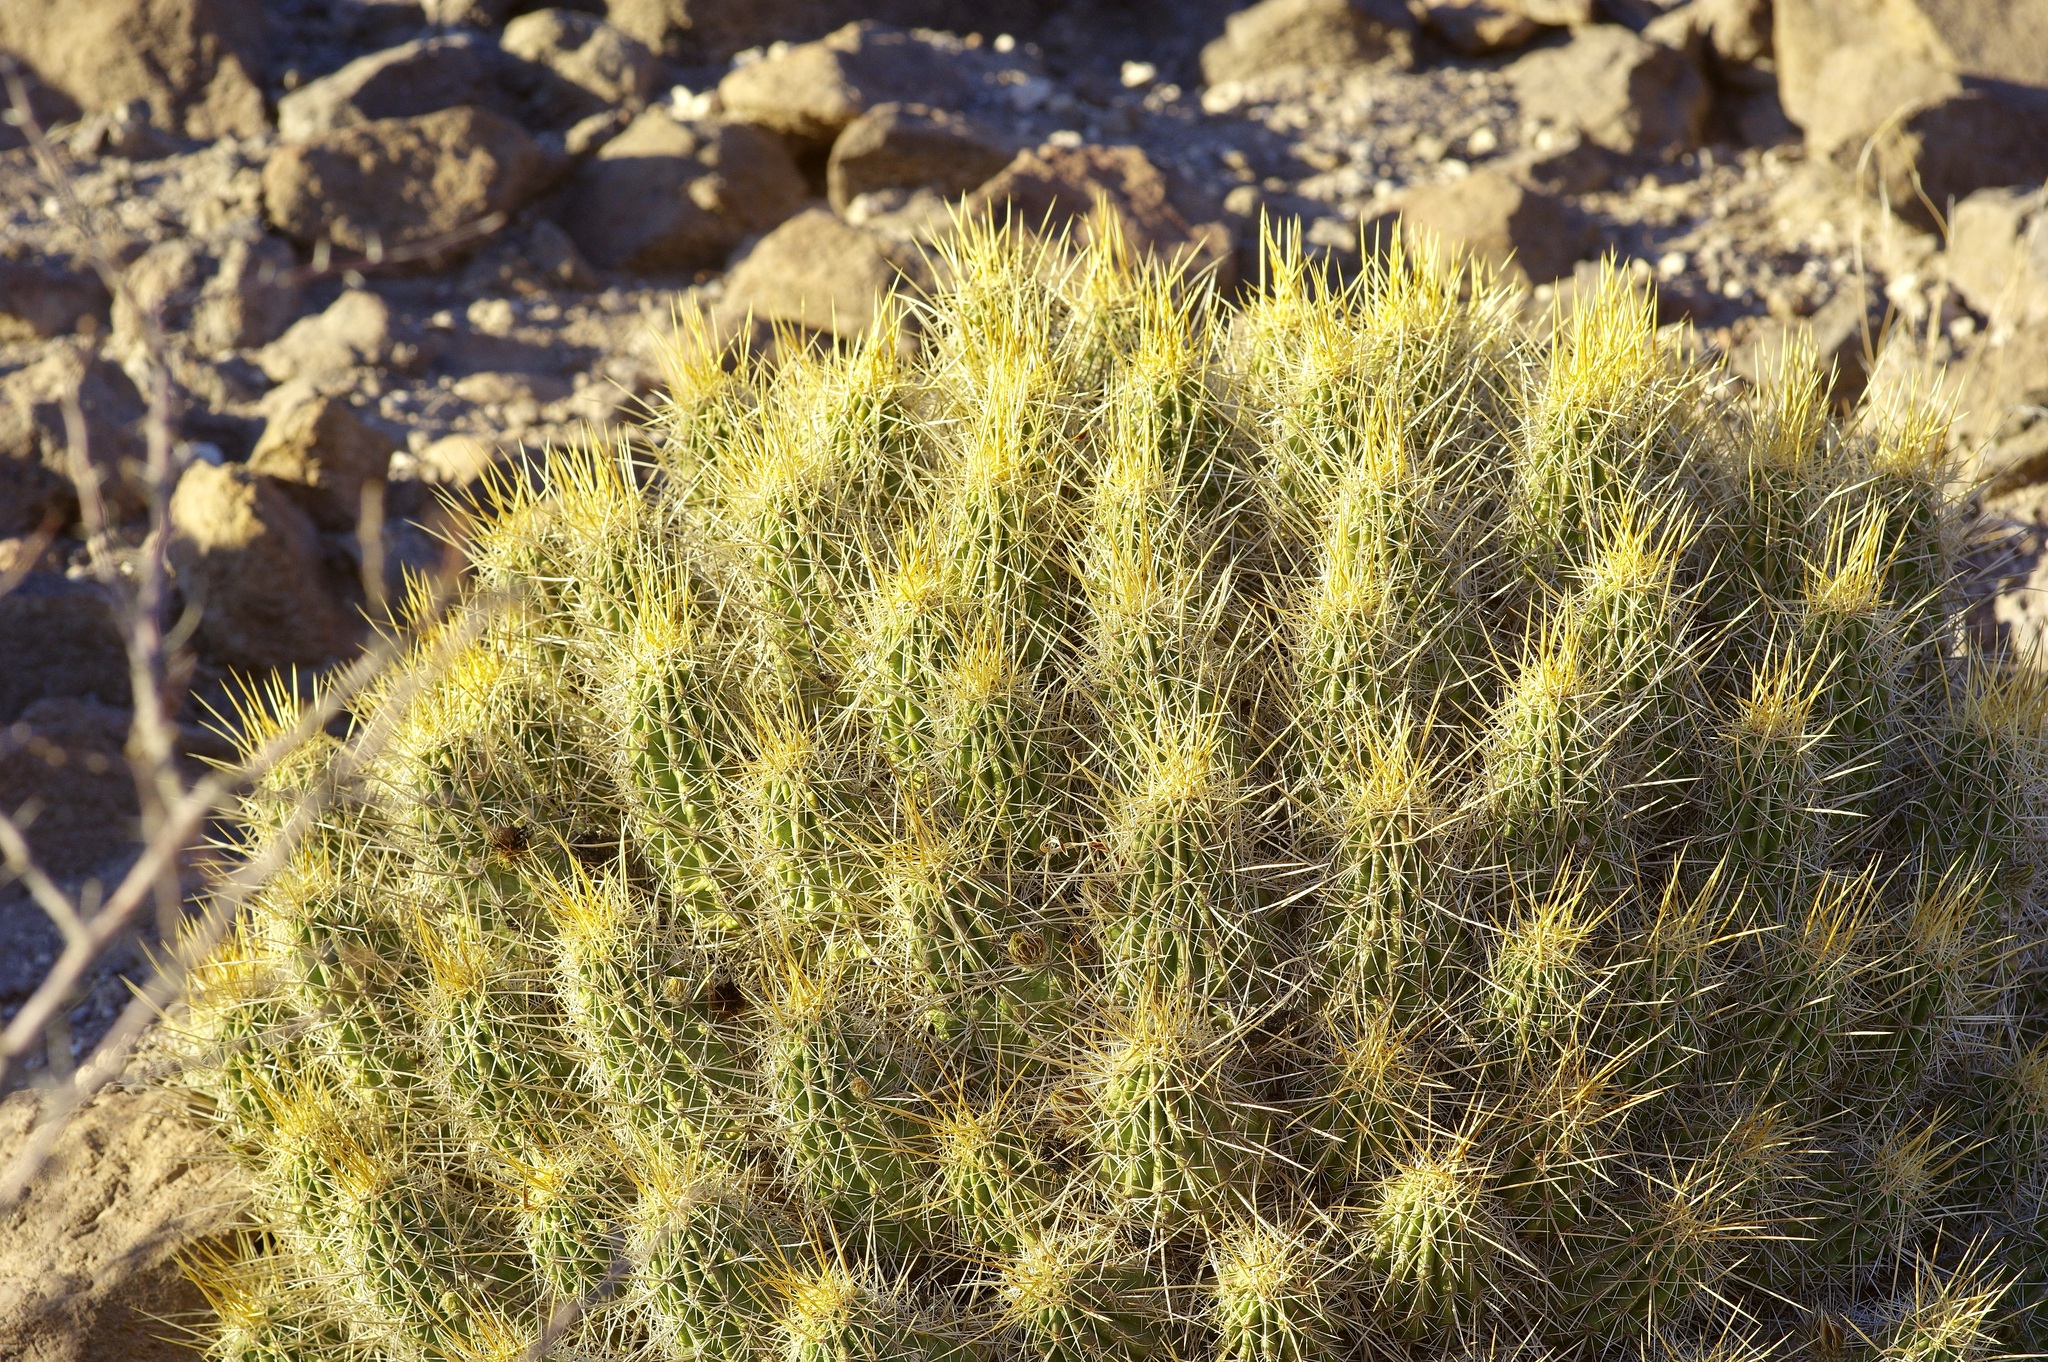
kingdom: Plantae
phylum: Tracheophyta
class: Magnoliopsida
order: Caryophyllales
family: Cactaceae
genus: Echinocereus
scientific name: Echinocereus stramineus
